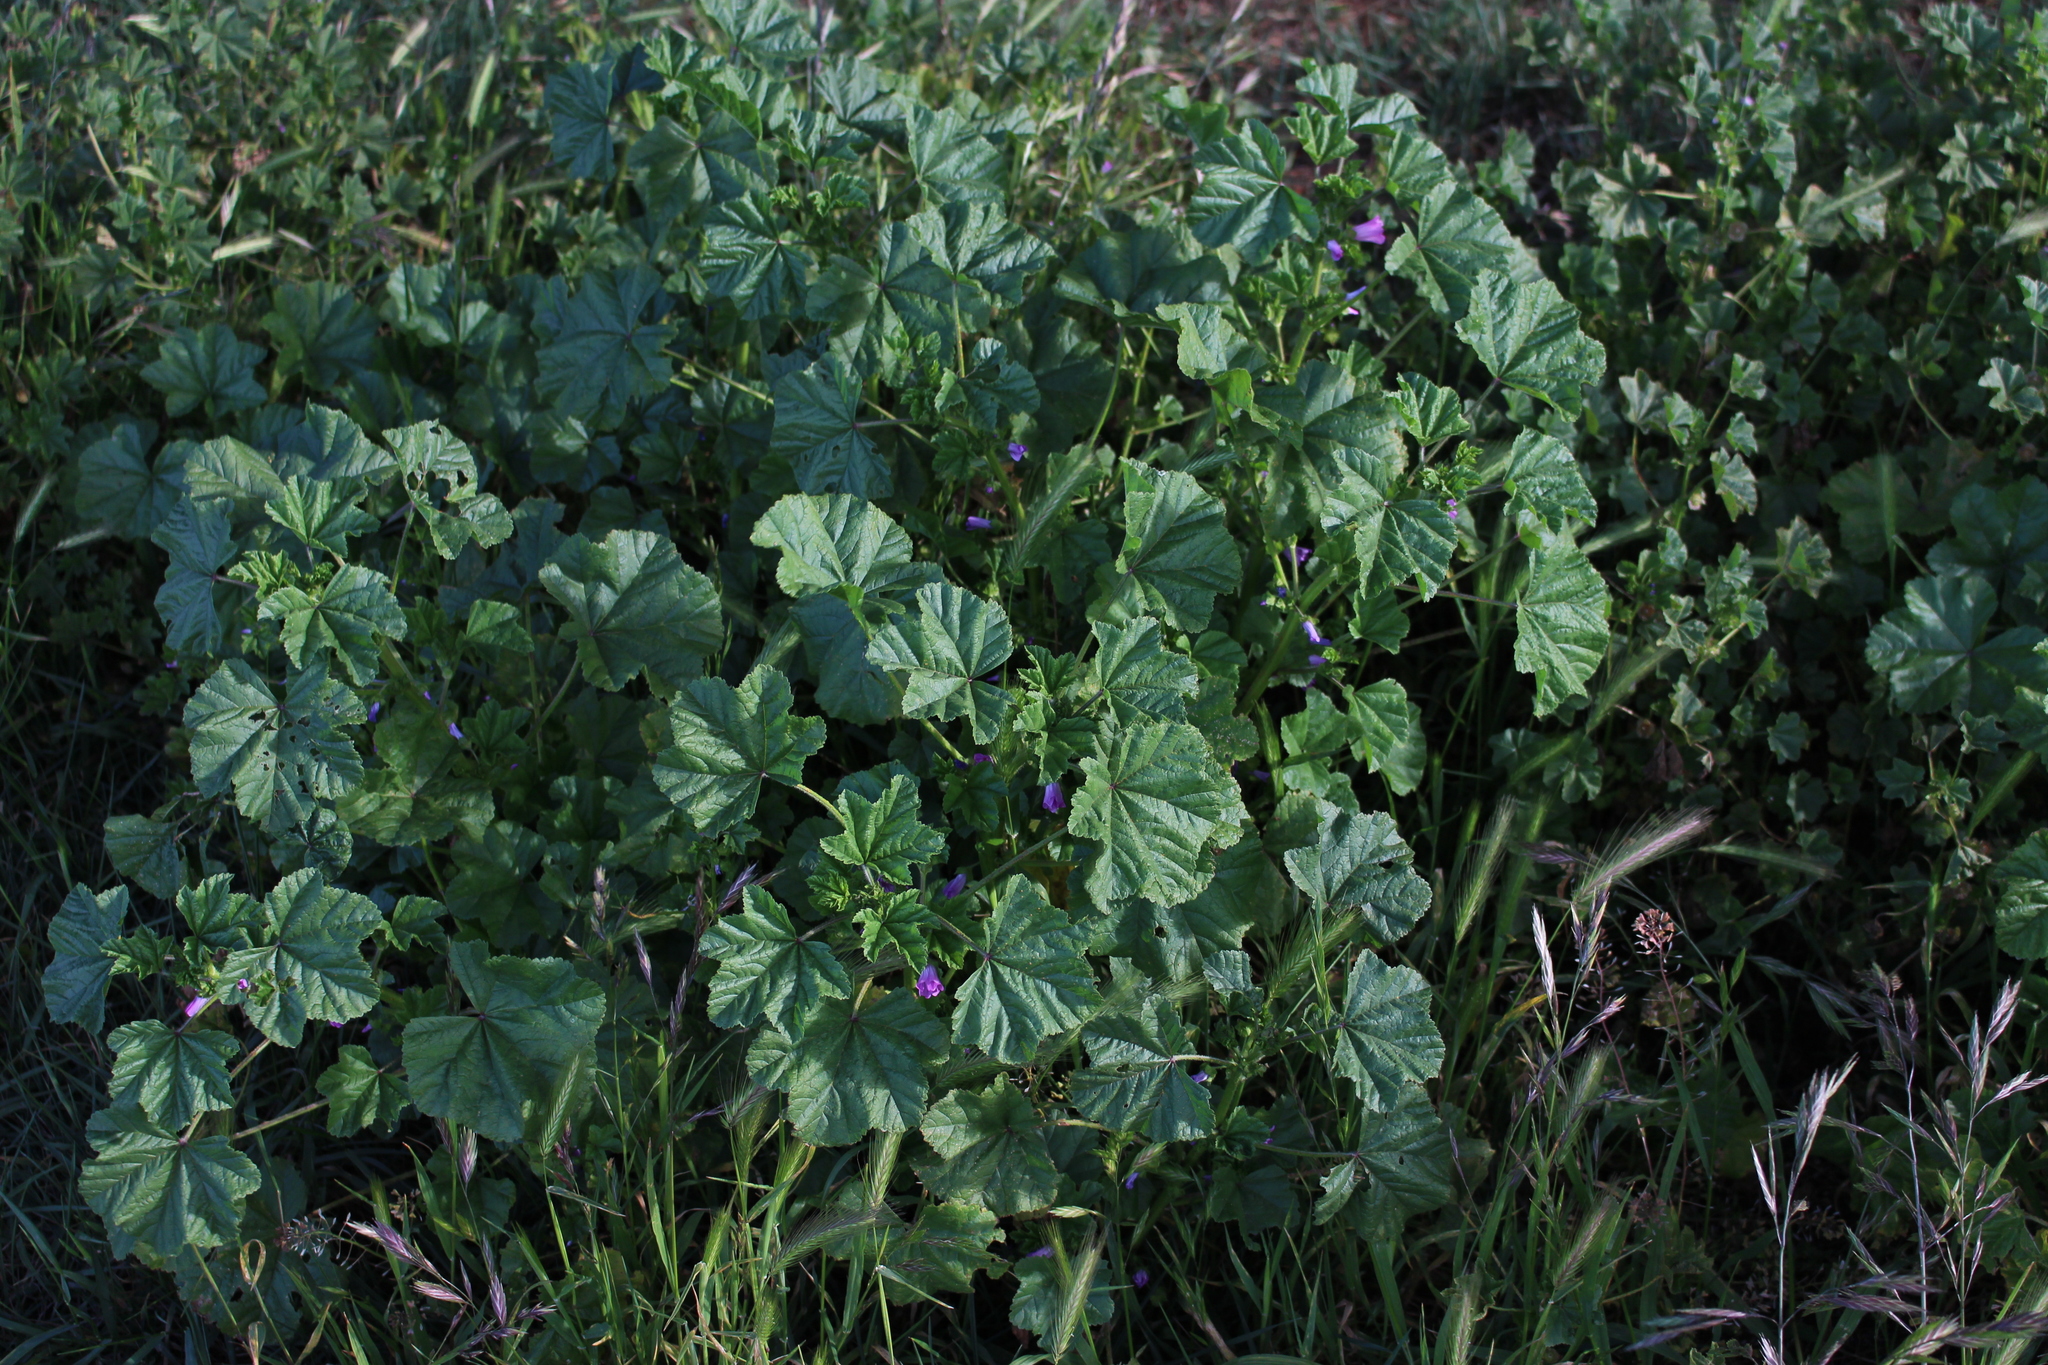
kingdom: Plantae
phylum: Tracheophyta
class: Magnoliopsida
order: Malvales
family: Malvaceae
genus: Malva
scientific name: Malva sylvestris
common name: Common mallow
